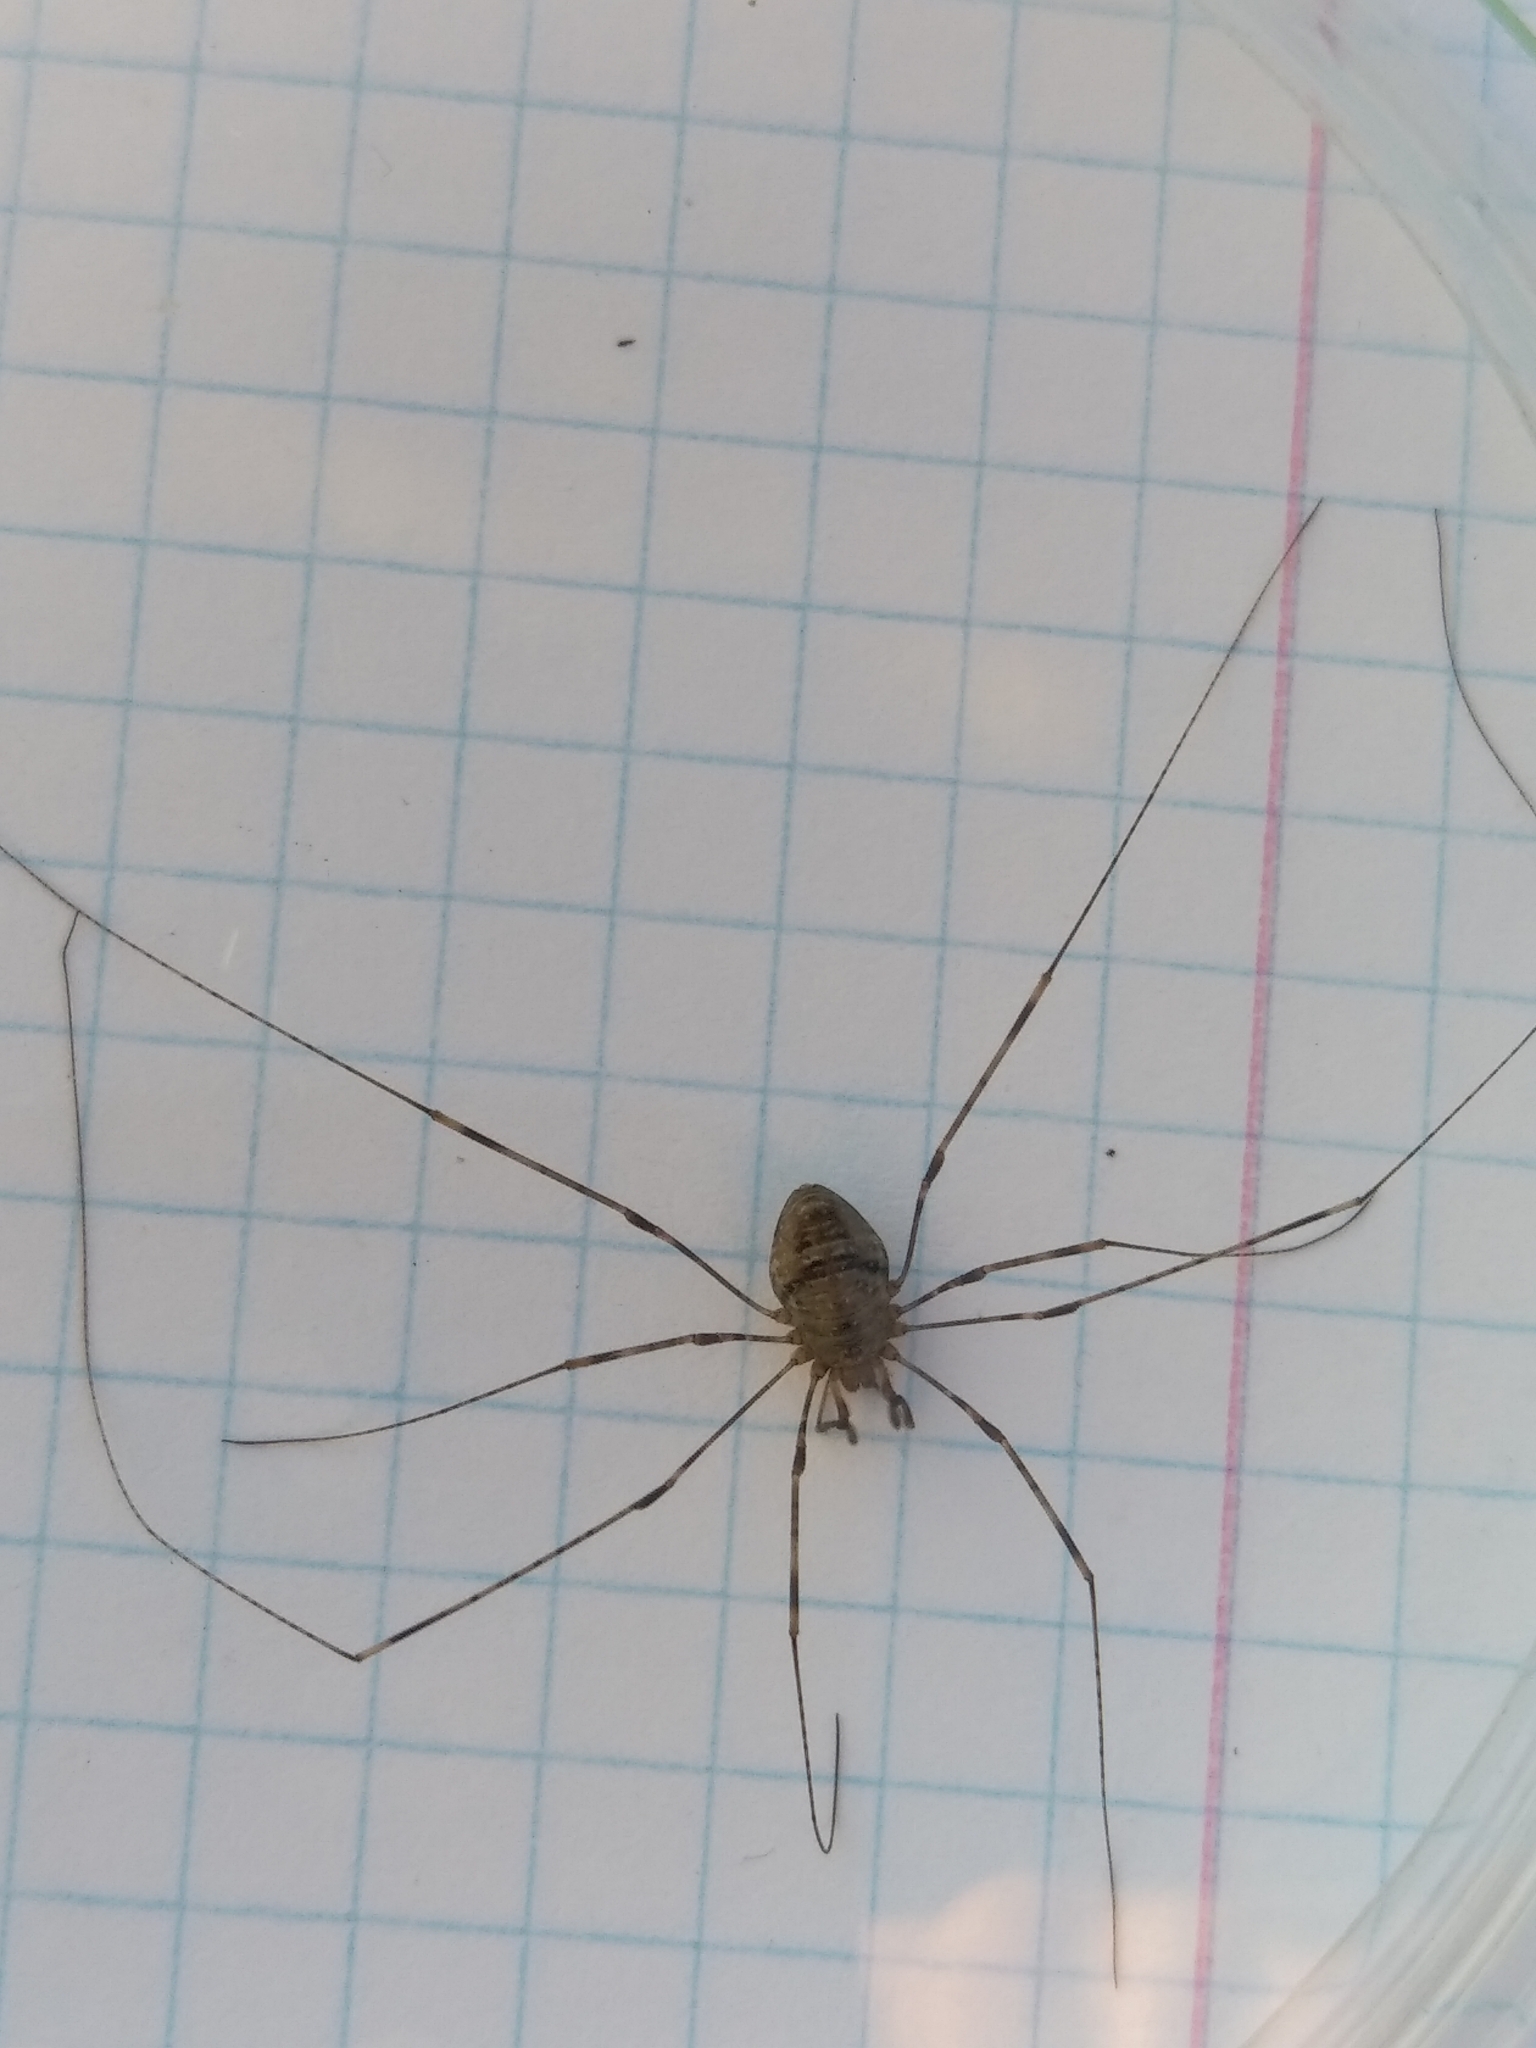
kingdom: Animalia
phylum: Arthropoda
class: Arachnida
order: Opiliones
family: Phalangiidae
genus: Dicranopalpus
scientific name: Dicranopalpus ramosus
